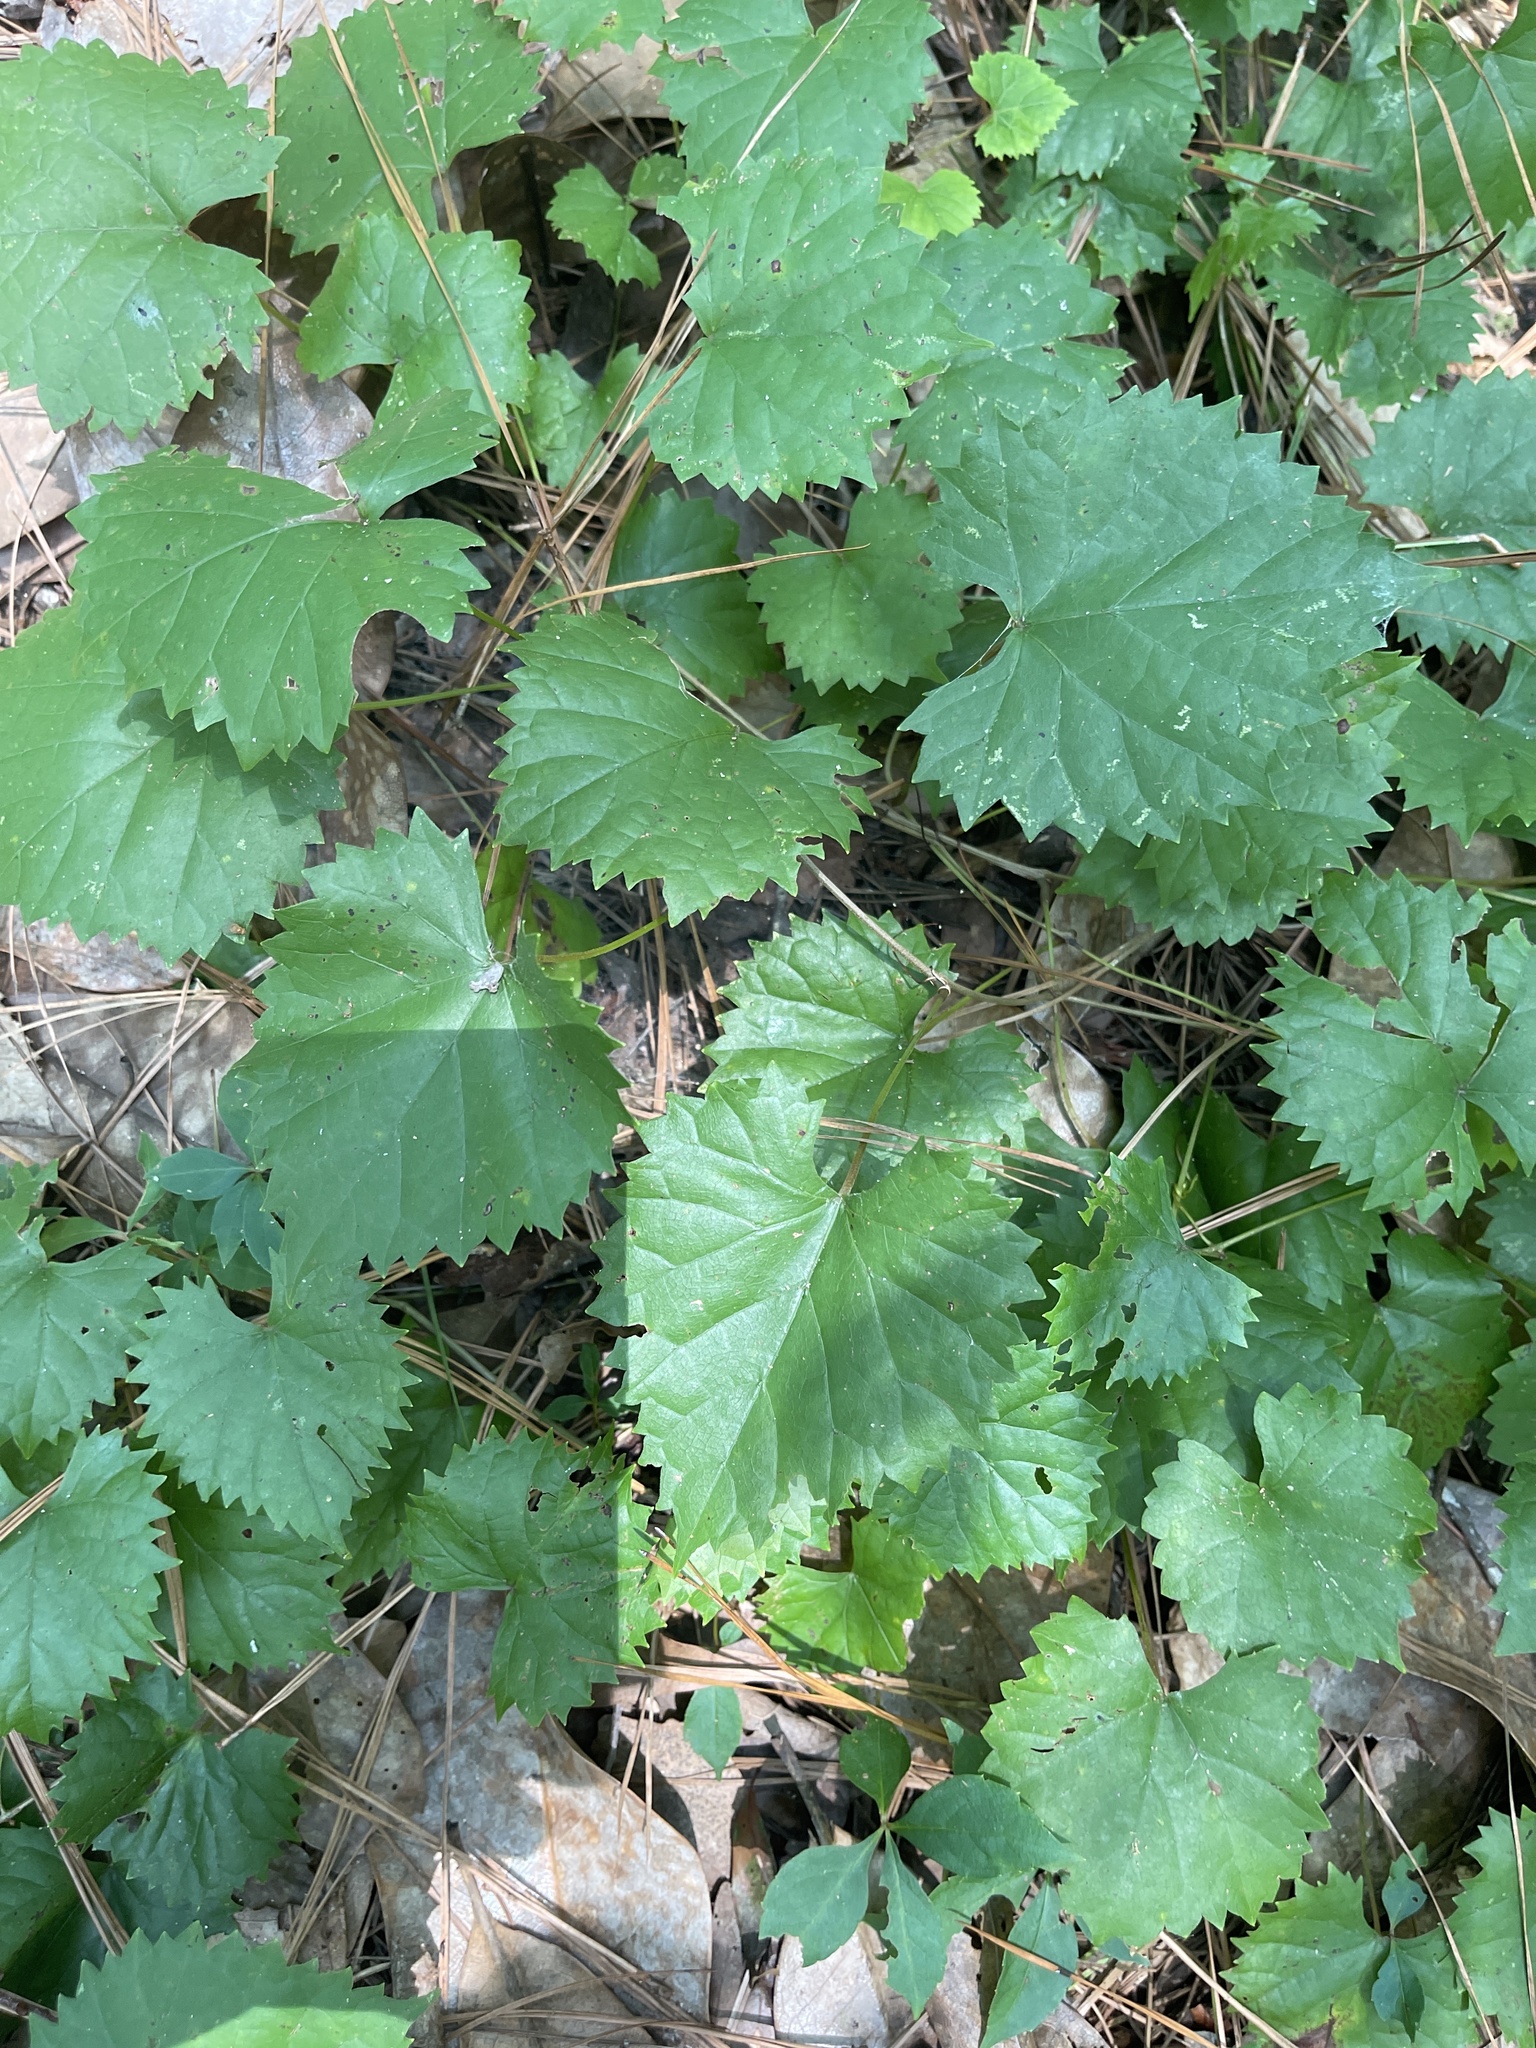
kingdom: Plantae
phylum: Tracheophyta
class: Magnoliopsida
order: Vitales
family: Vitaceae
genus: Vitis
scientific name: Vitis rotundifolia
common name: Muscadine grape
